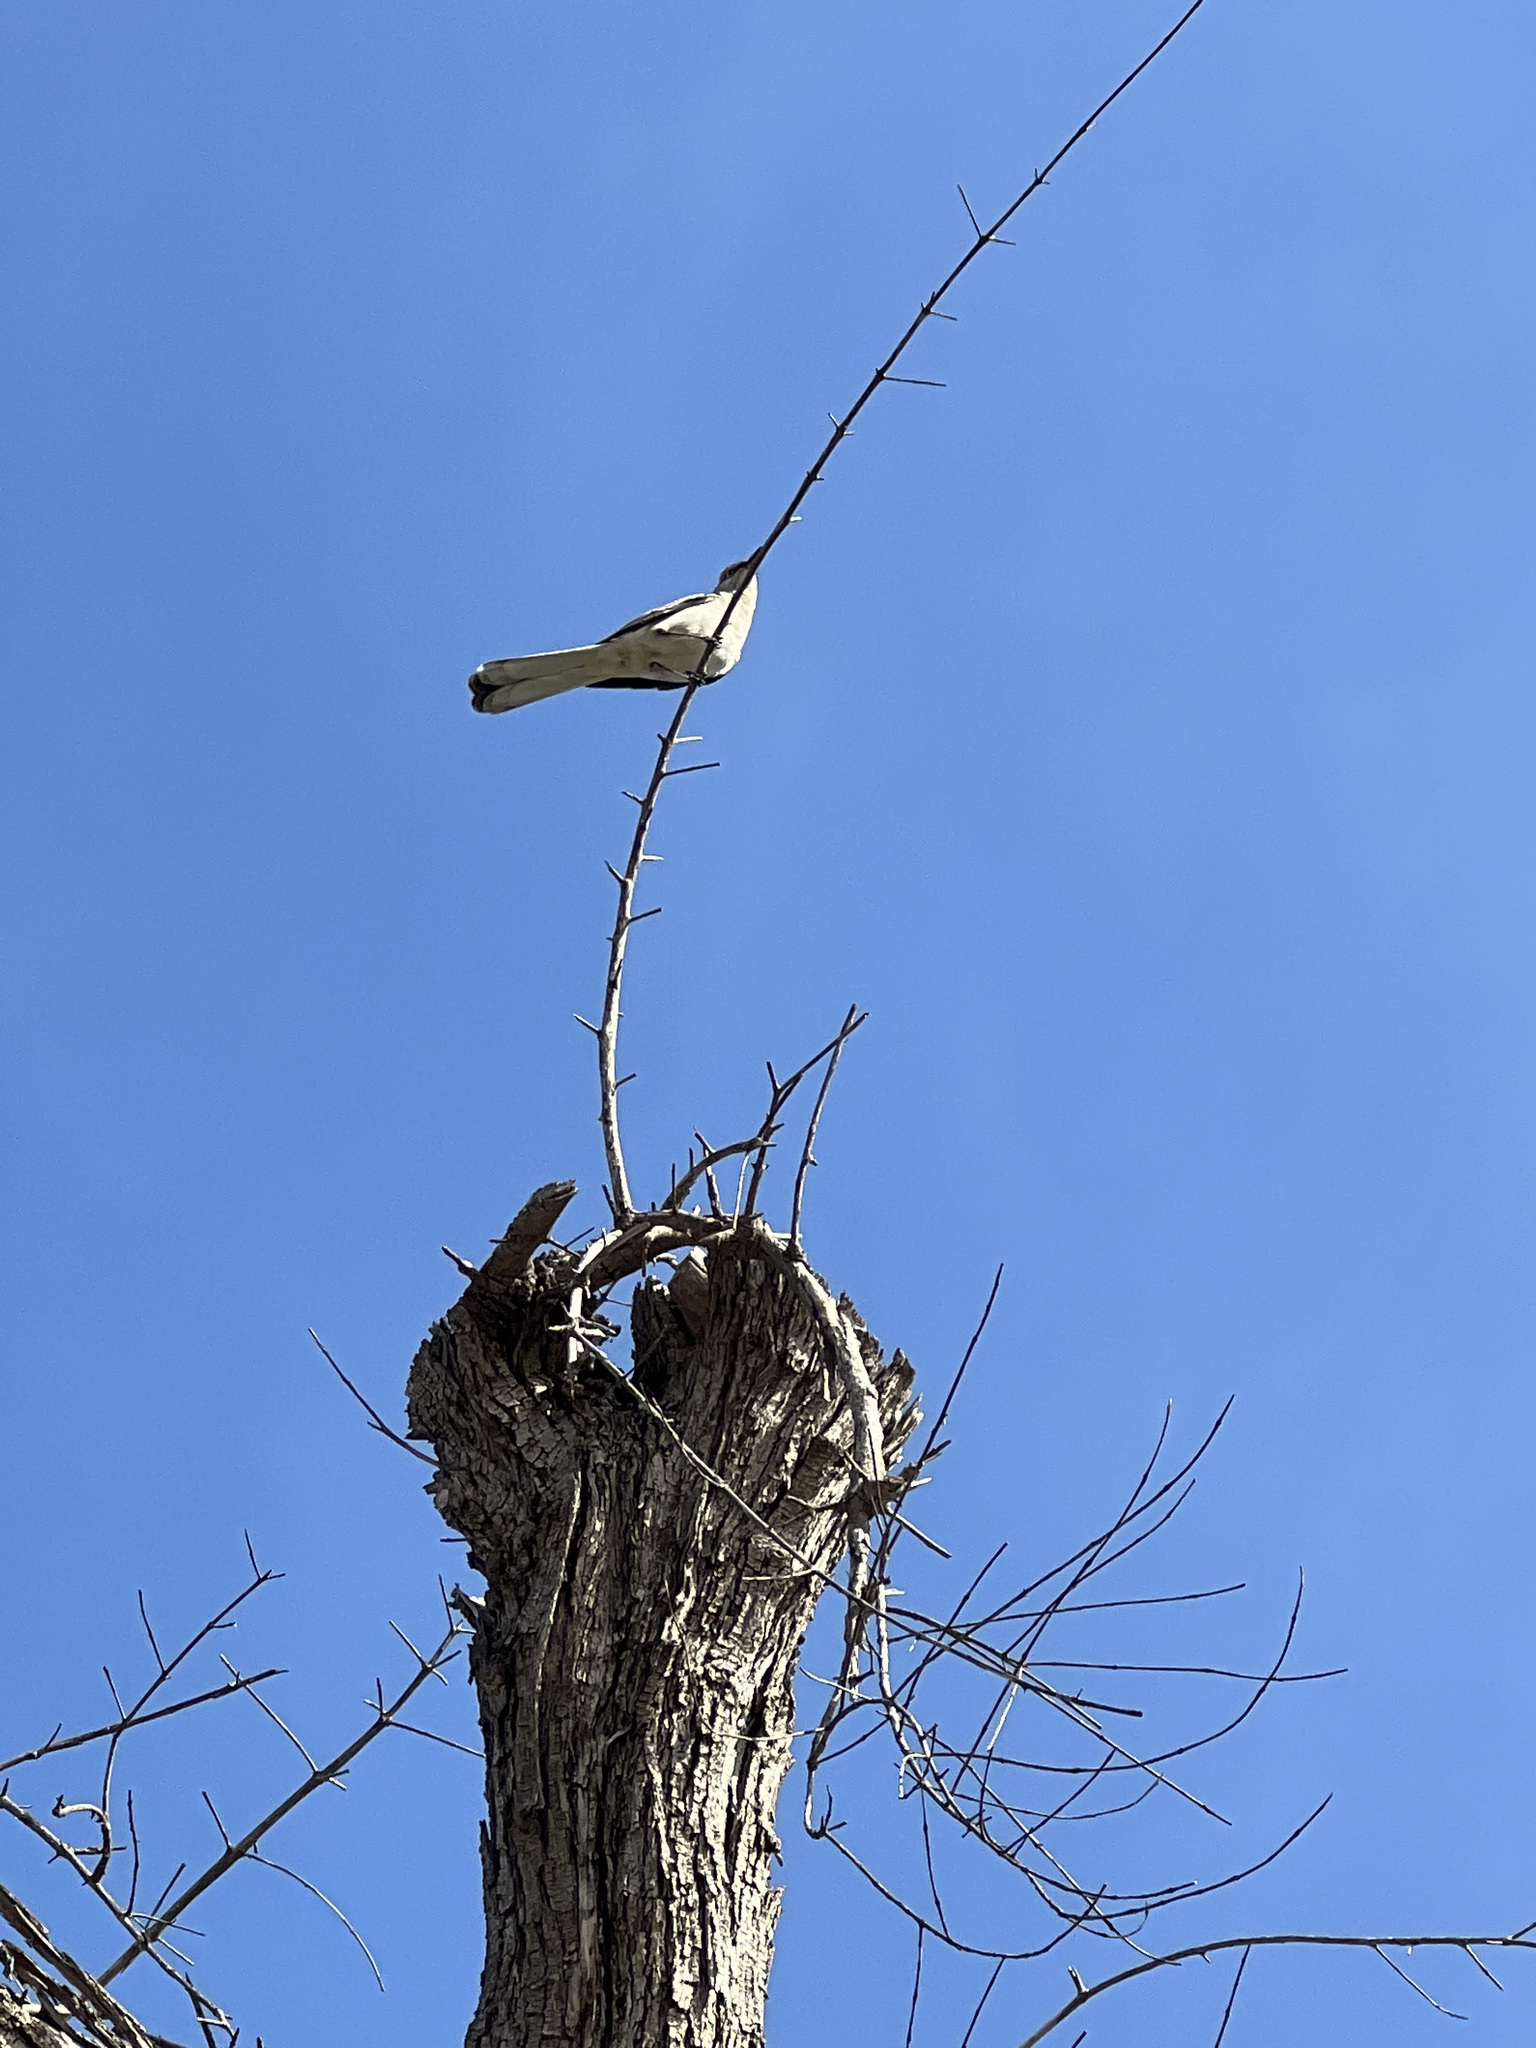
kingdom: Animalia
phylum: Chordata
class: Aves
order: Passeriformes
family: Mimidae
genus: Mimus
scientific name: Mimus polyglottos
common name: Northern mockingbird
